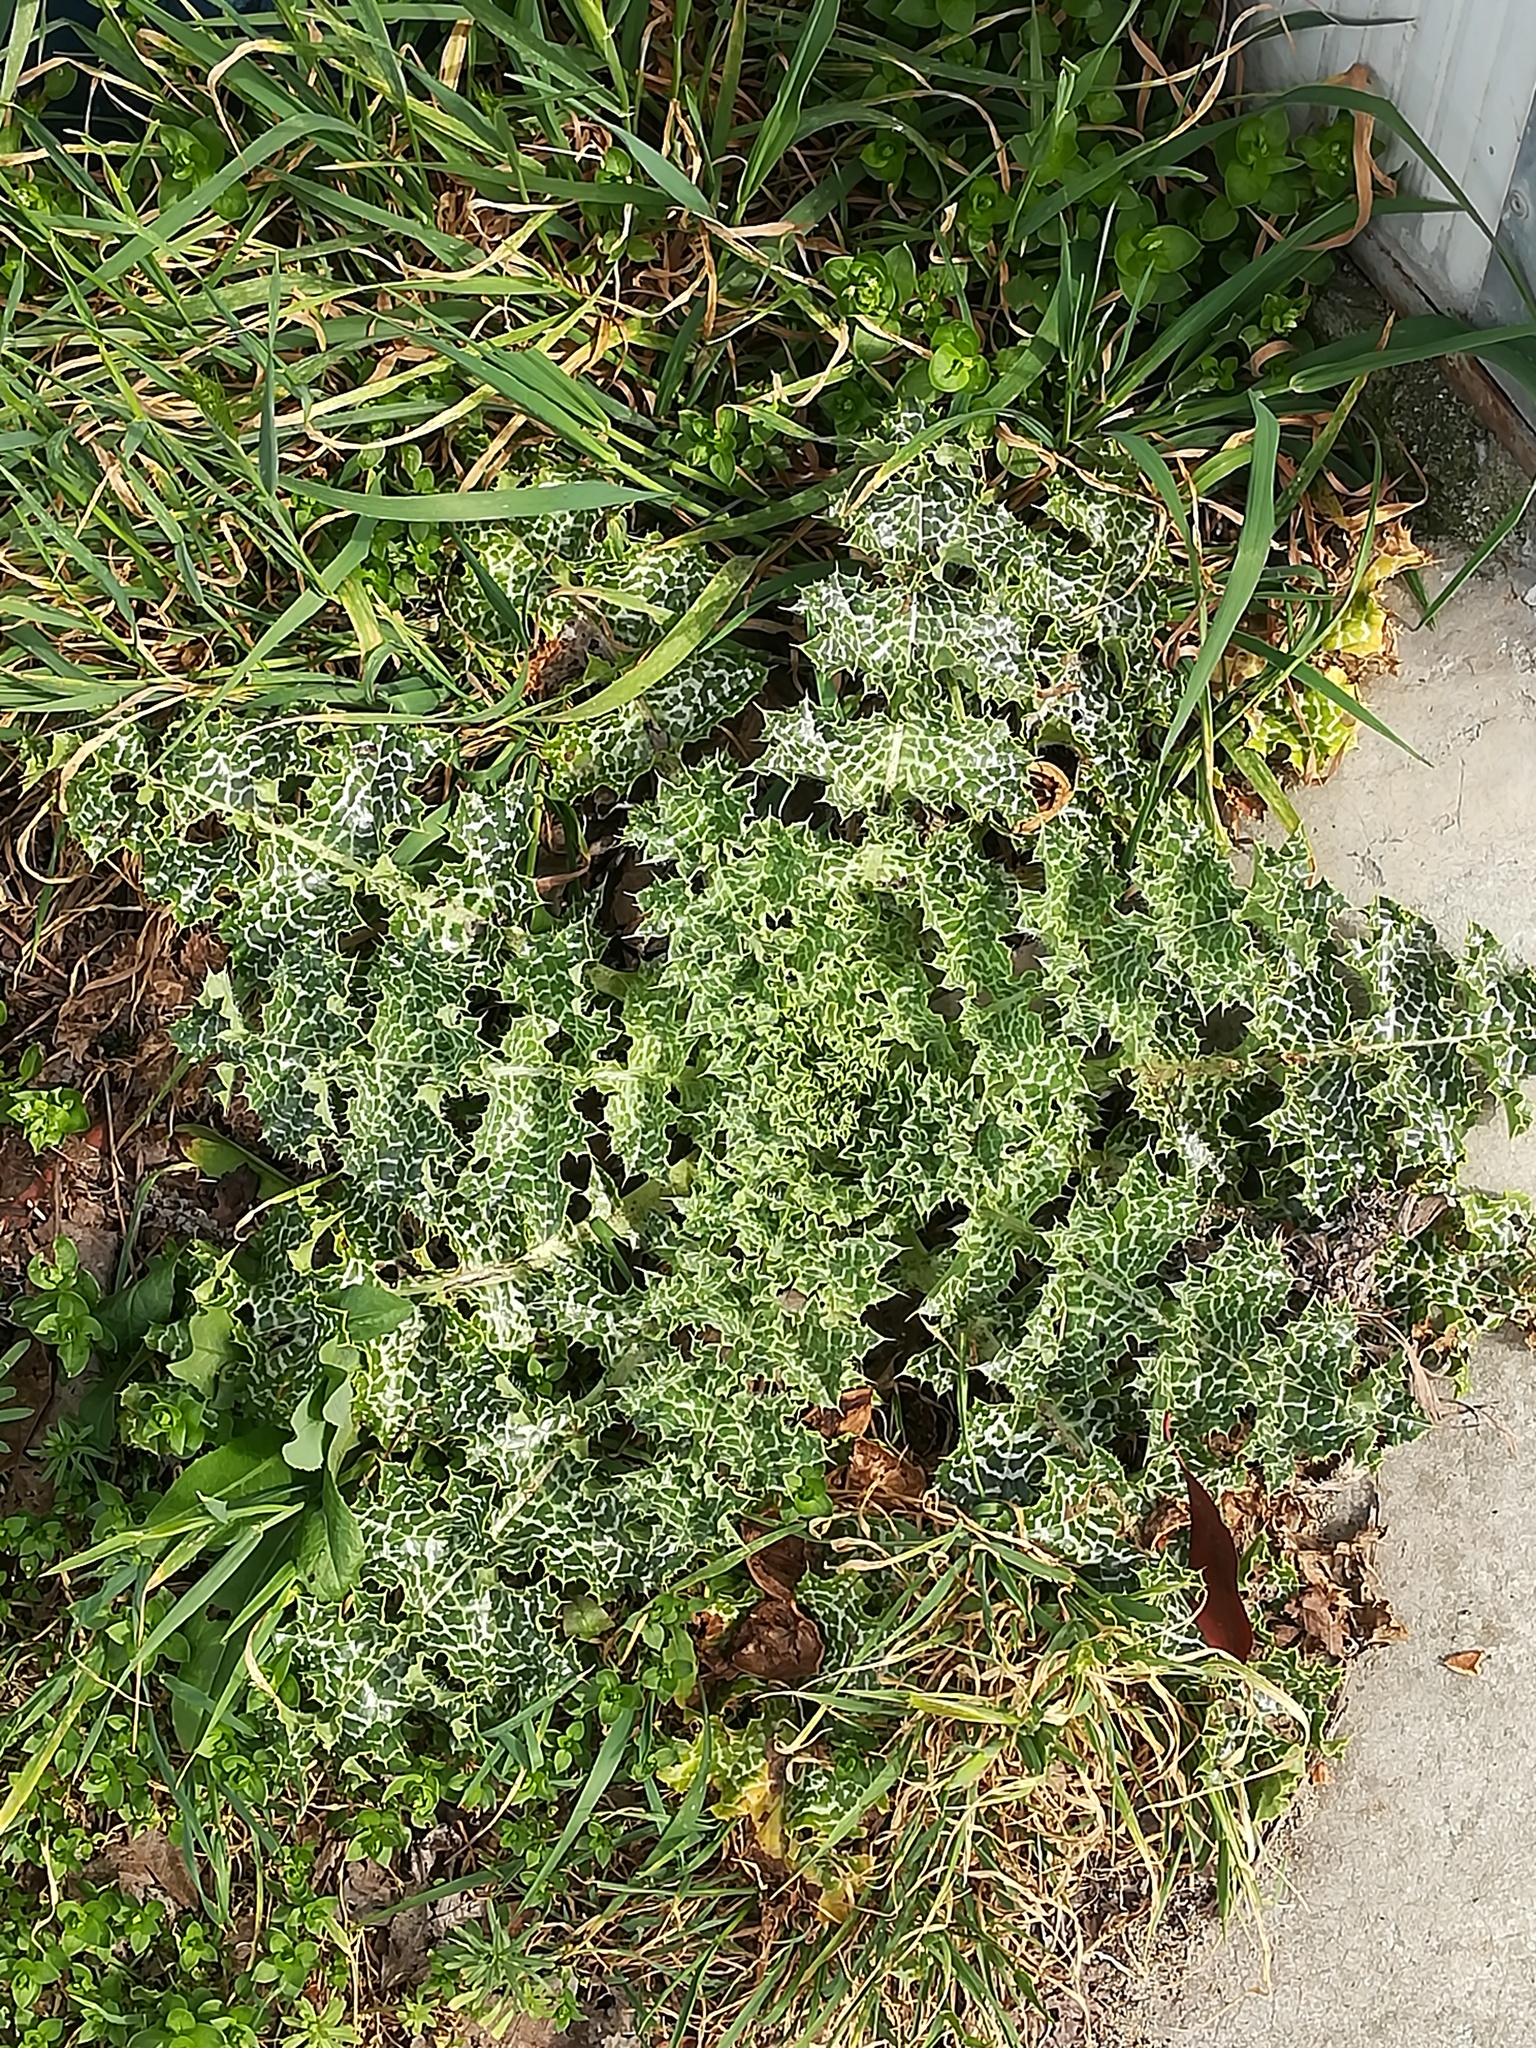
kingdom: Plantae
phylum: Tracheophyta
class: Magnoliopsida
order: Asterales
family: Asteraceae
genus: Silybum
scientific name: Silybum marianum
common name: Milk thistle
